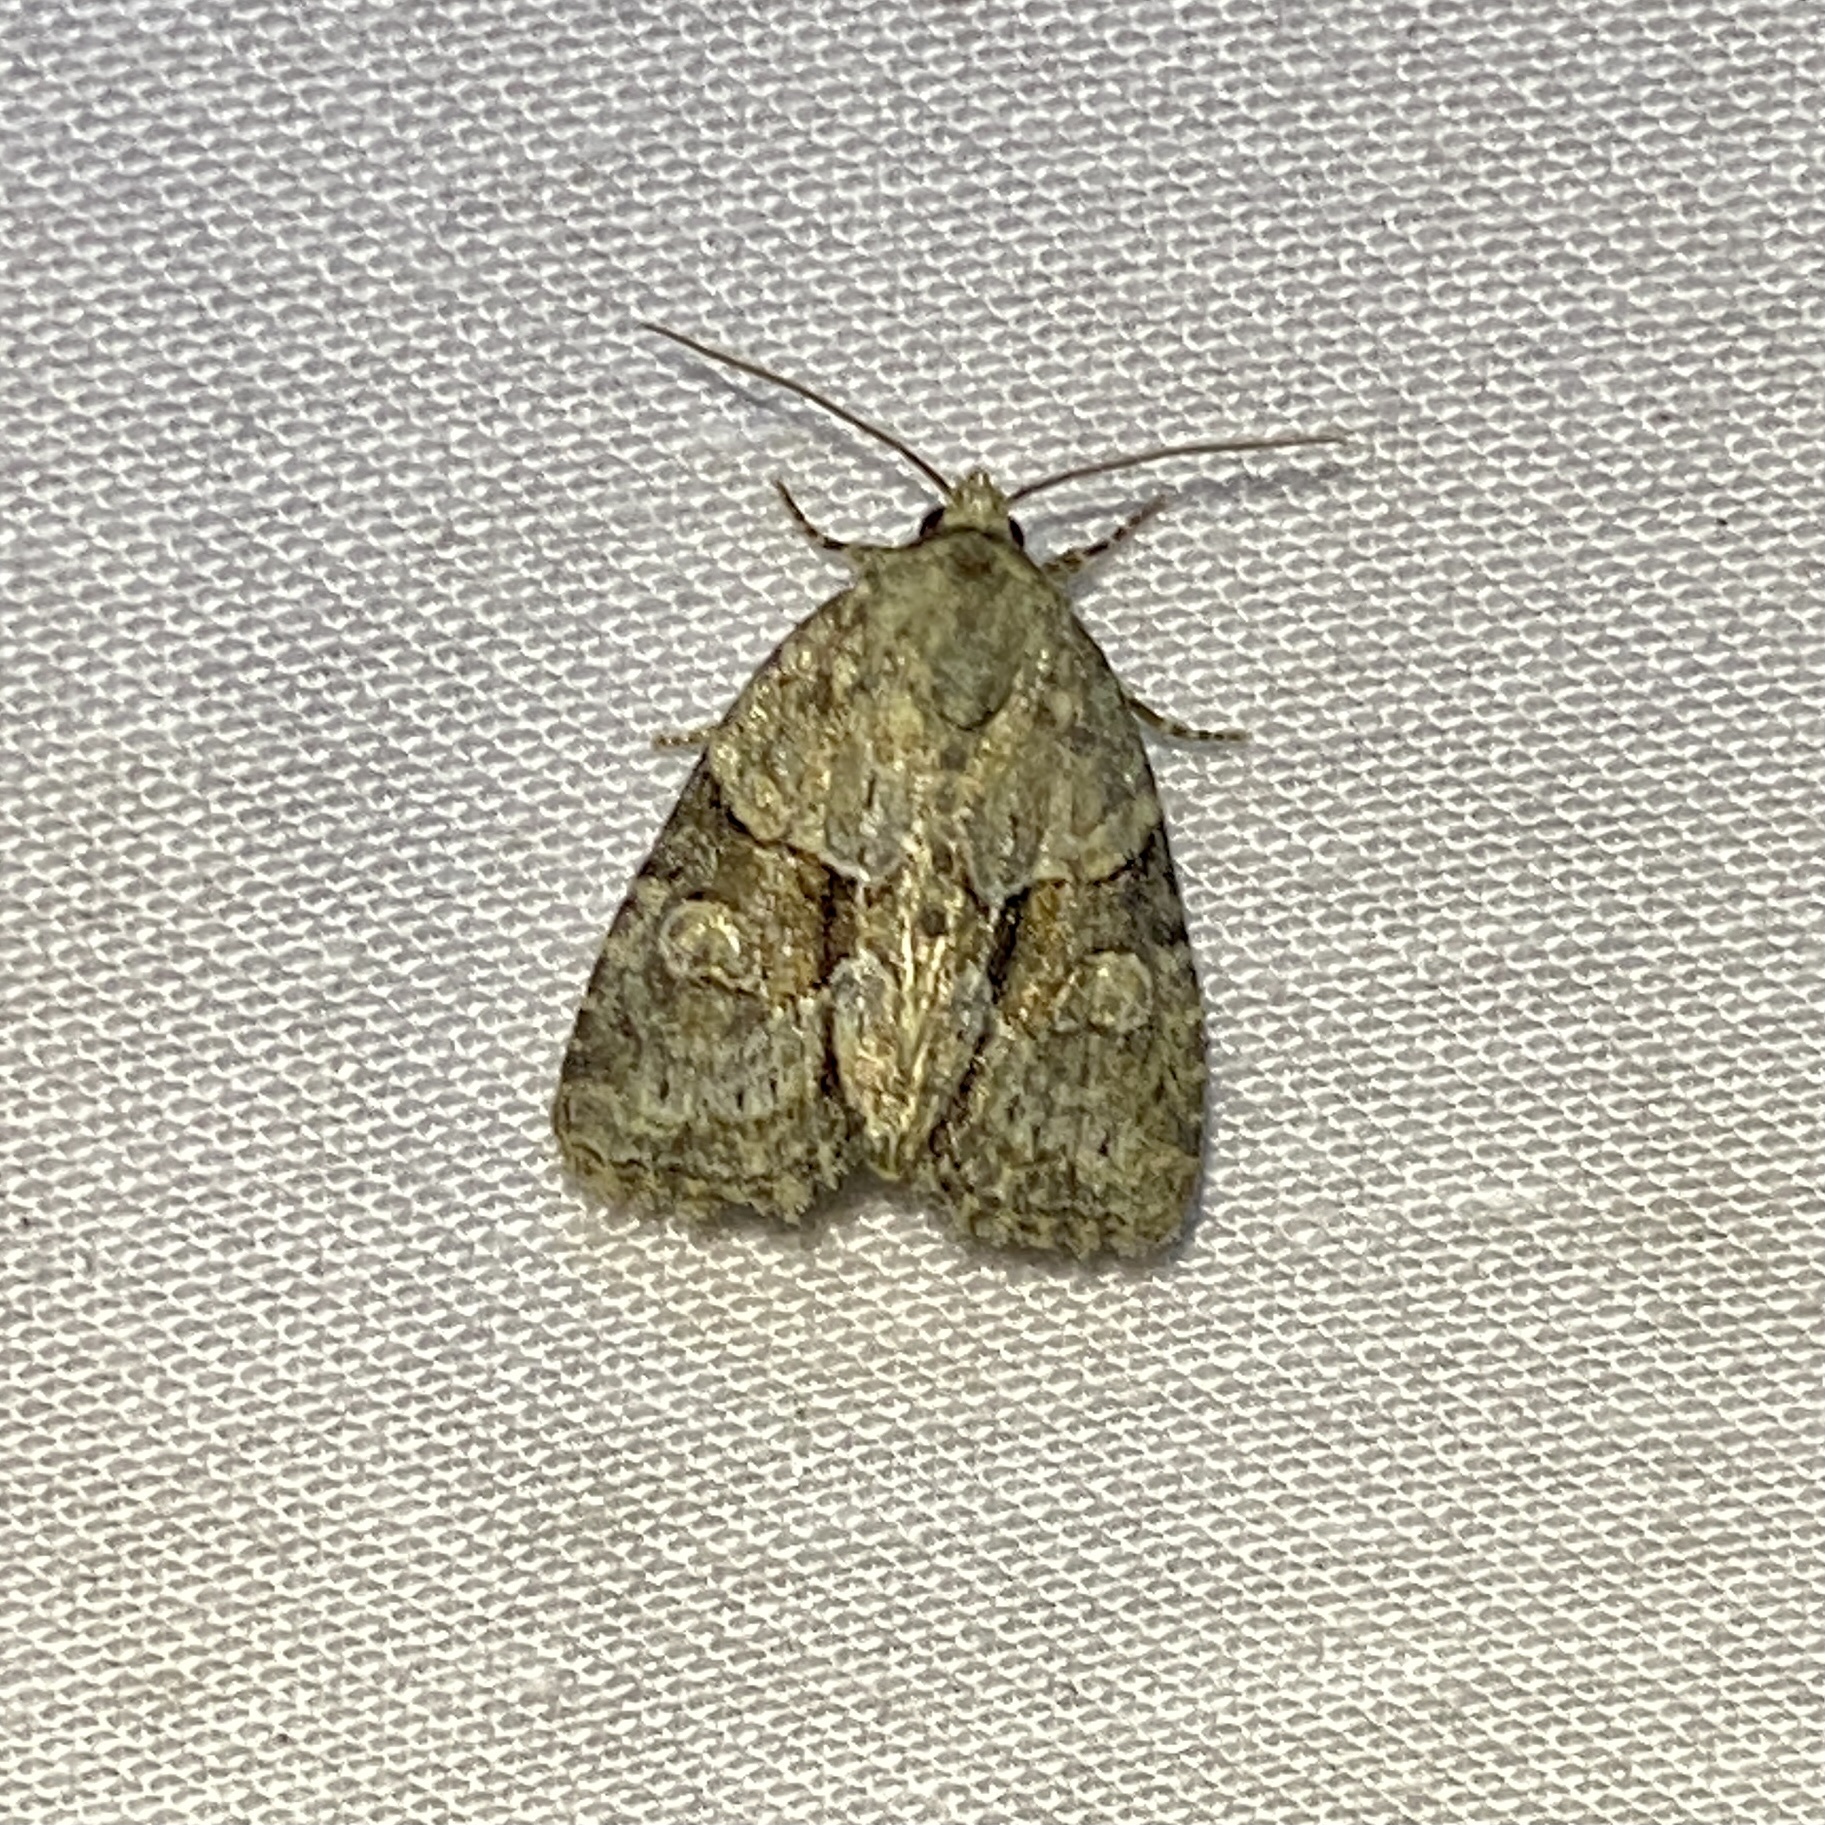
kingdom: Animalia
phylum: Arthropoda
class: Insecta
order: Lepidoptera
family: Noctuidae
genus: Neoligia
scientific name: Neoligia exhausta
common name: Exhausted brocade
